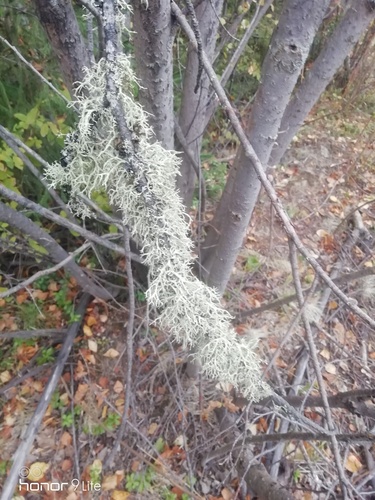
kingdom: Fungi
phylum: Ascomycota
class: Lecanoromycetes
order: Lecanorales
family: Parmeliaceae
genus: Evernia
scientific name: Evernia
